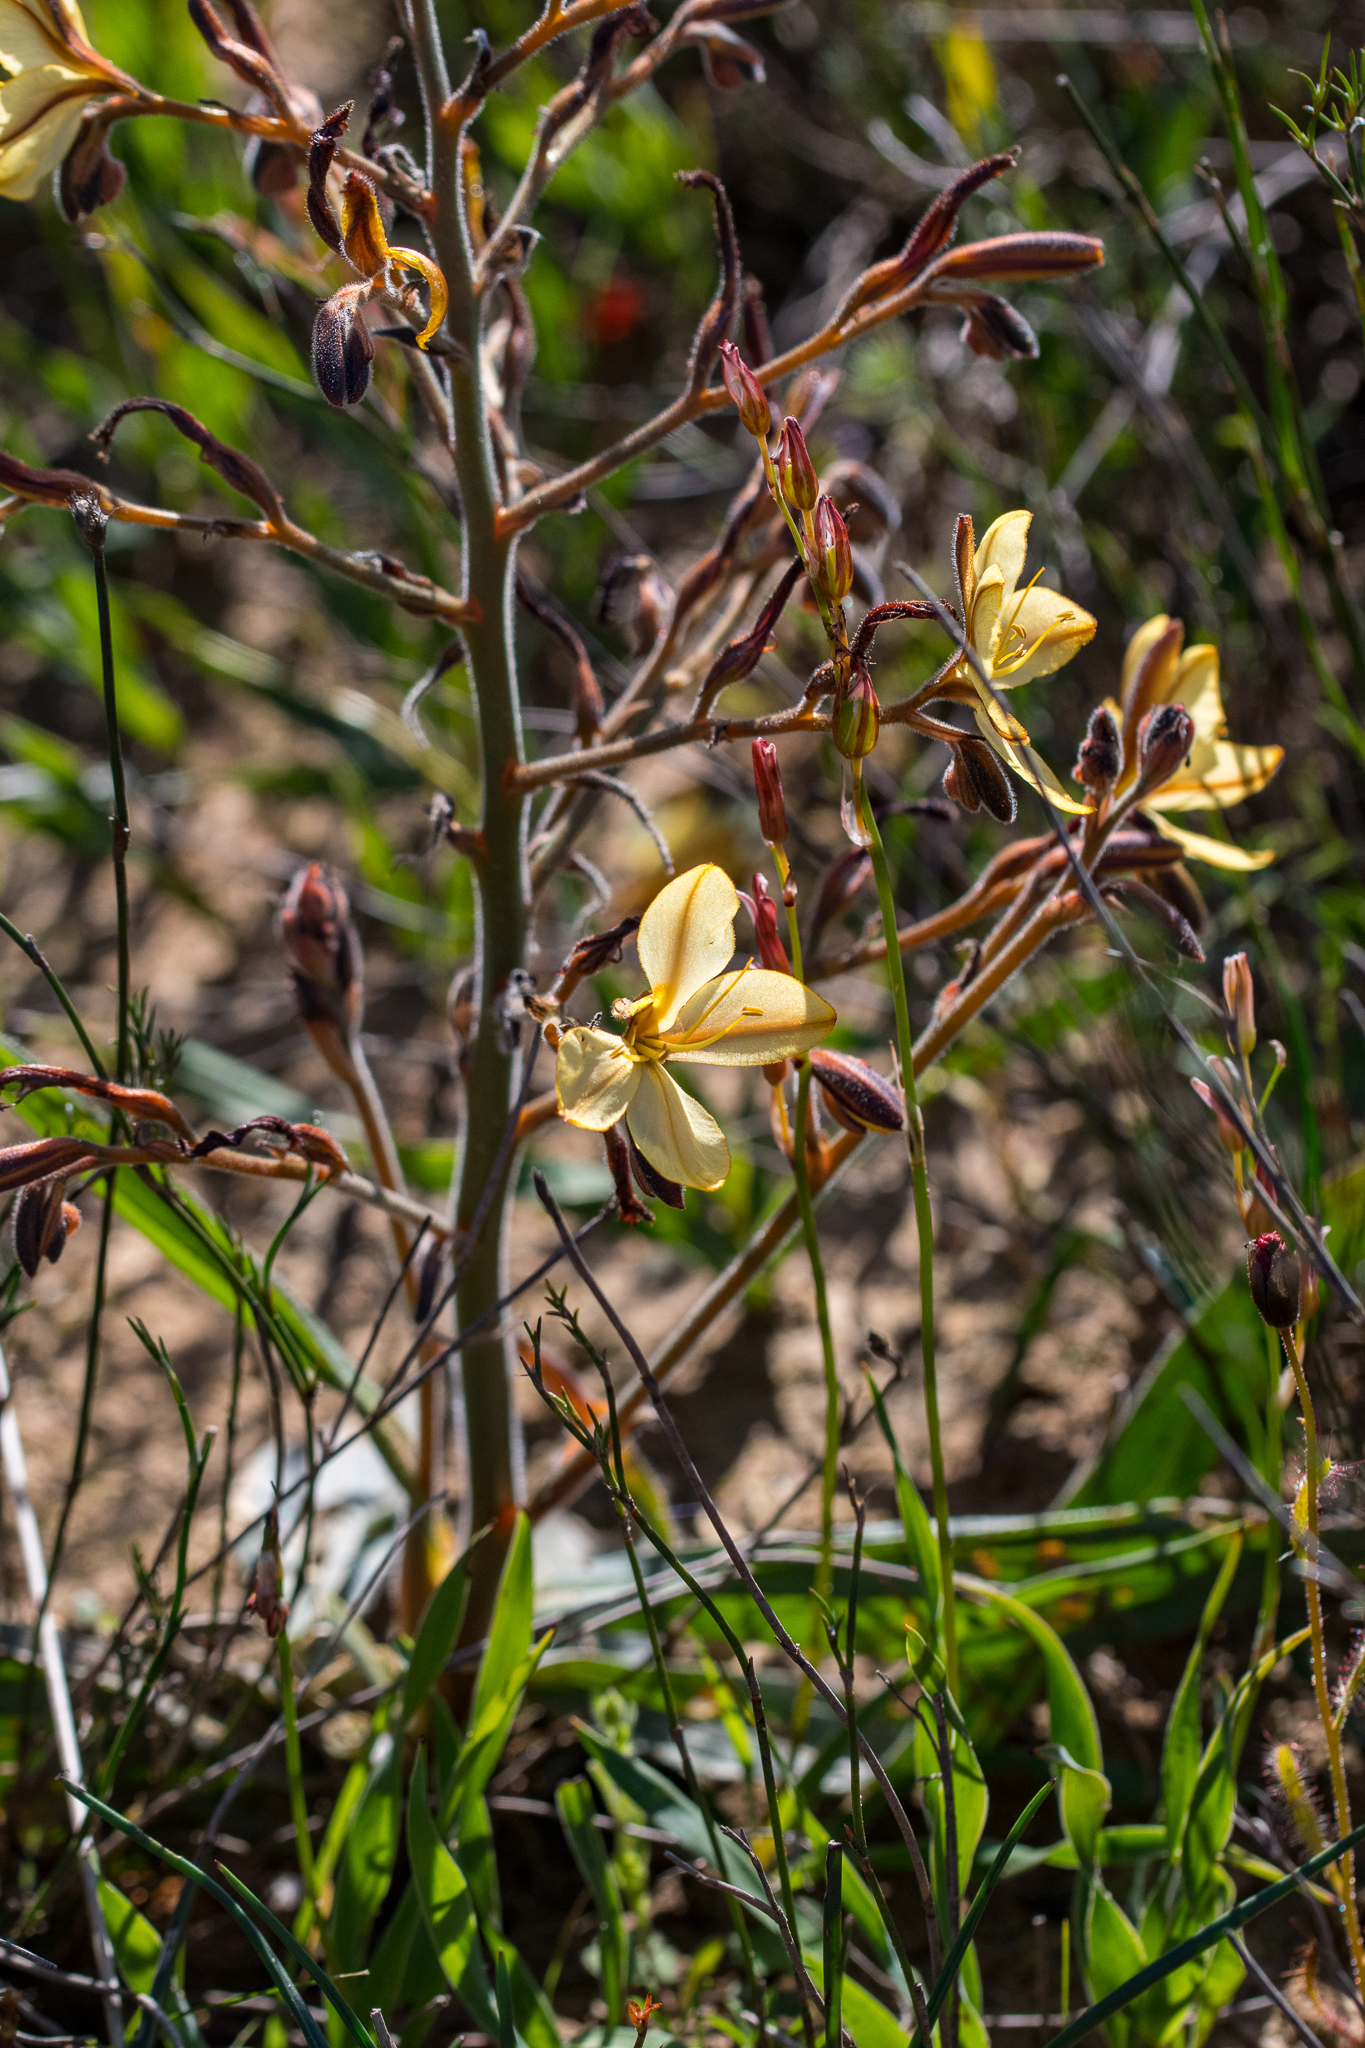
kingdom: Plantae
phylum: Tracheophyta
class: Liliopsida
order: Commelinales
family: Haemodoraceae
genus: Wachendorfia
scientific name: Wachendorfia paniculata
